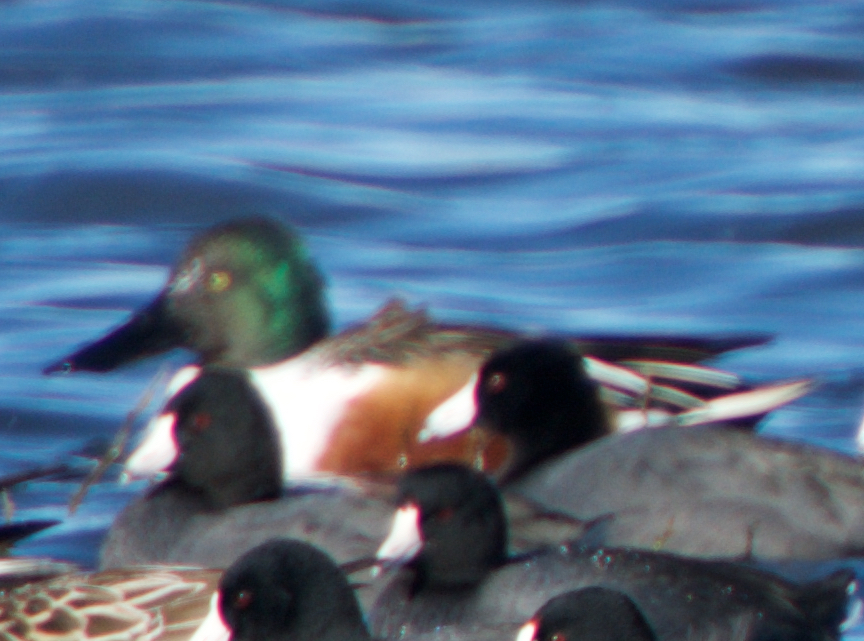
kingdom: Animalia
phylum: Chordata
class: Aves
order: Anseriformes
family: Anatidae
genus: Spatula
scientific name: Spatula clypeata
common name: Northern shoveler
